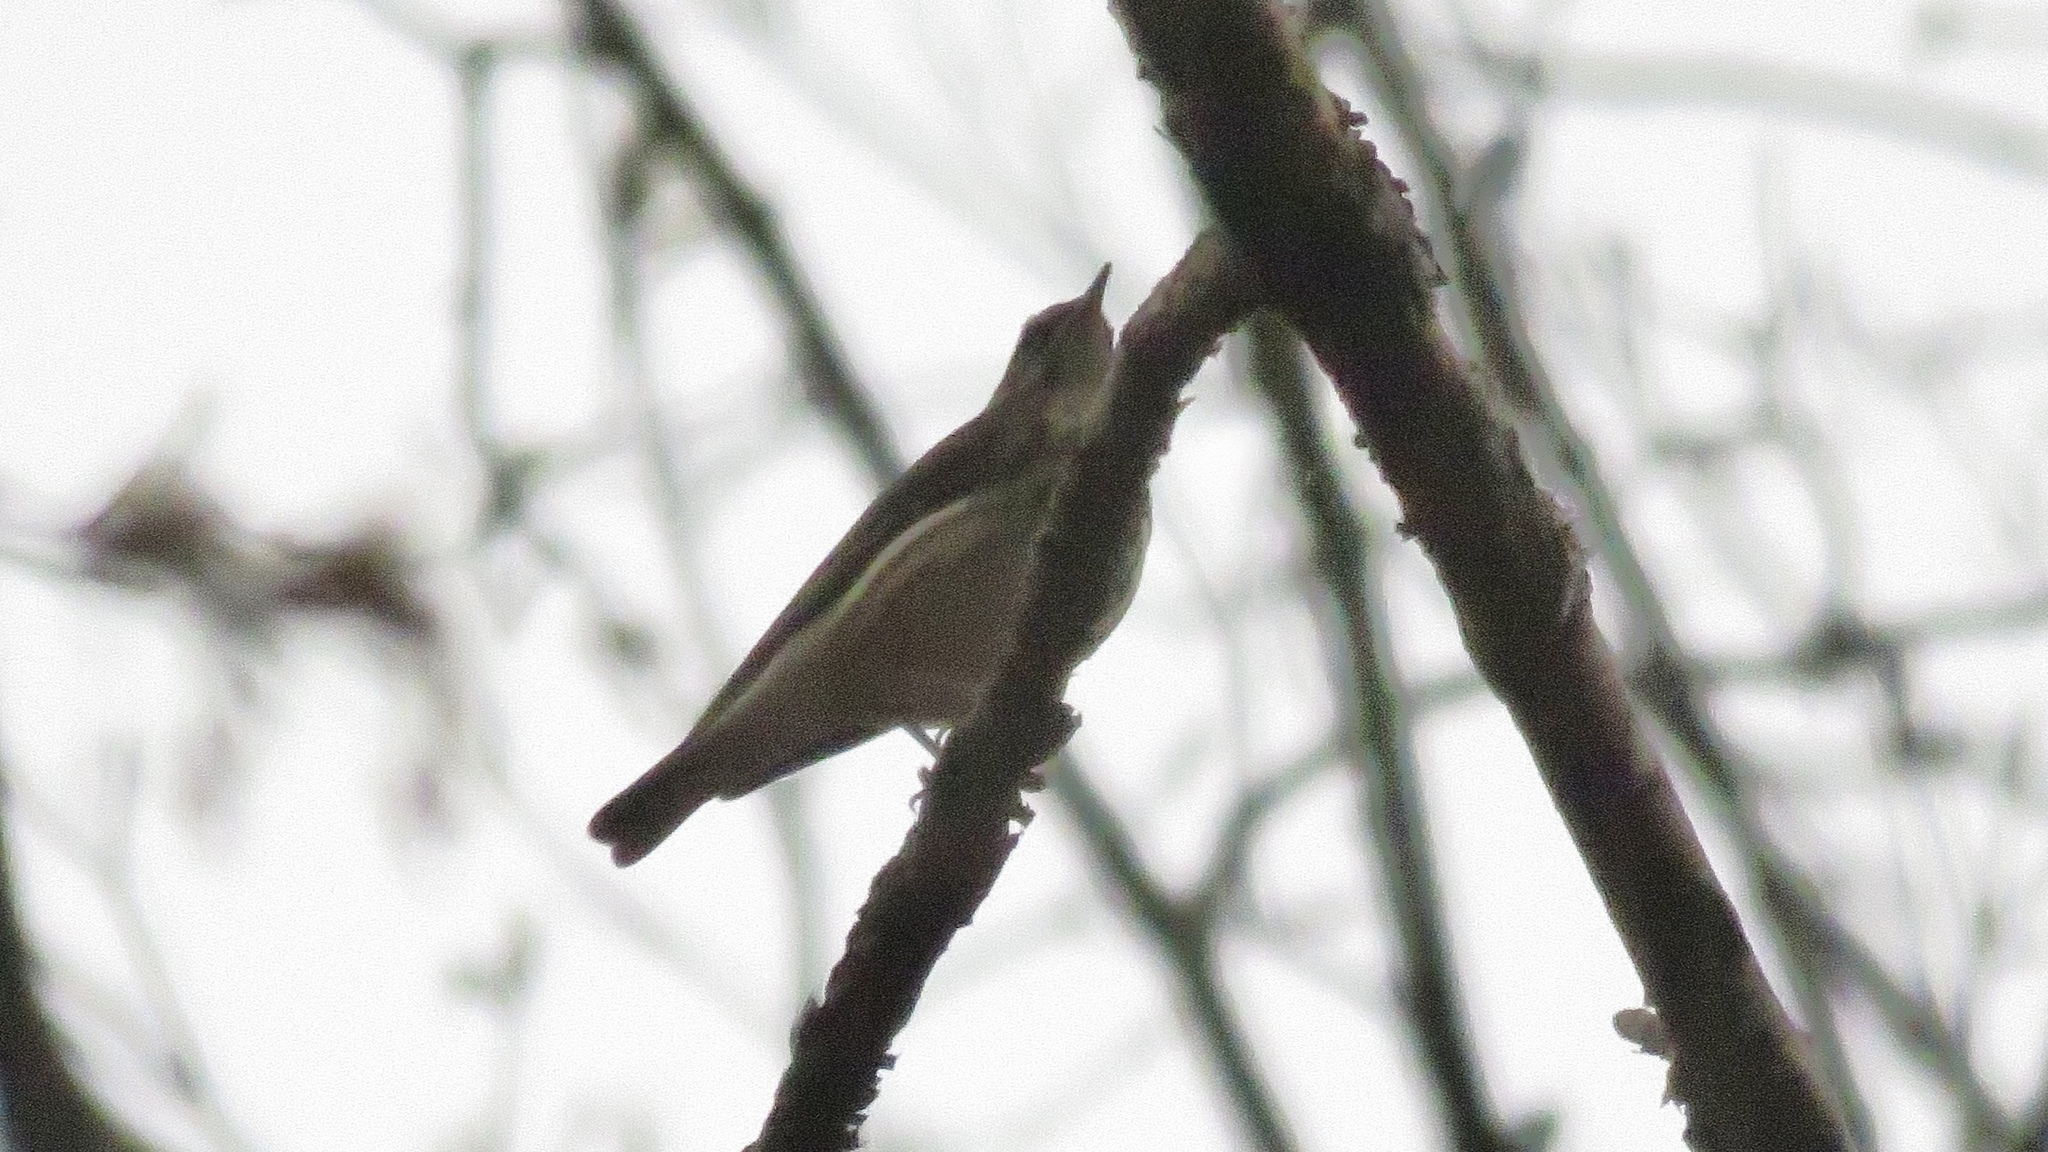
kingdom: Animalia
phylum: Chordata
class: Aves
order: Passeriformes
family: Parulidae
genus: Parkesia
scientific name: Parkesia motacilla
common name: Louisiana waterthrush
